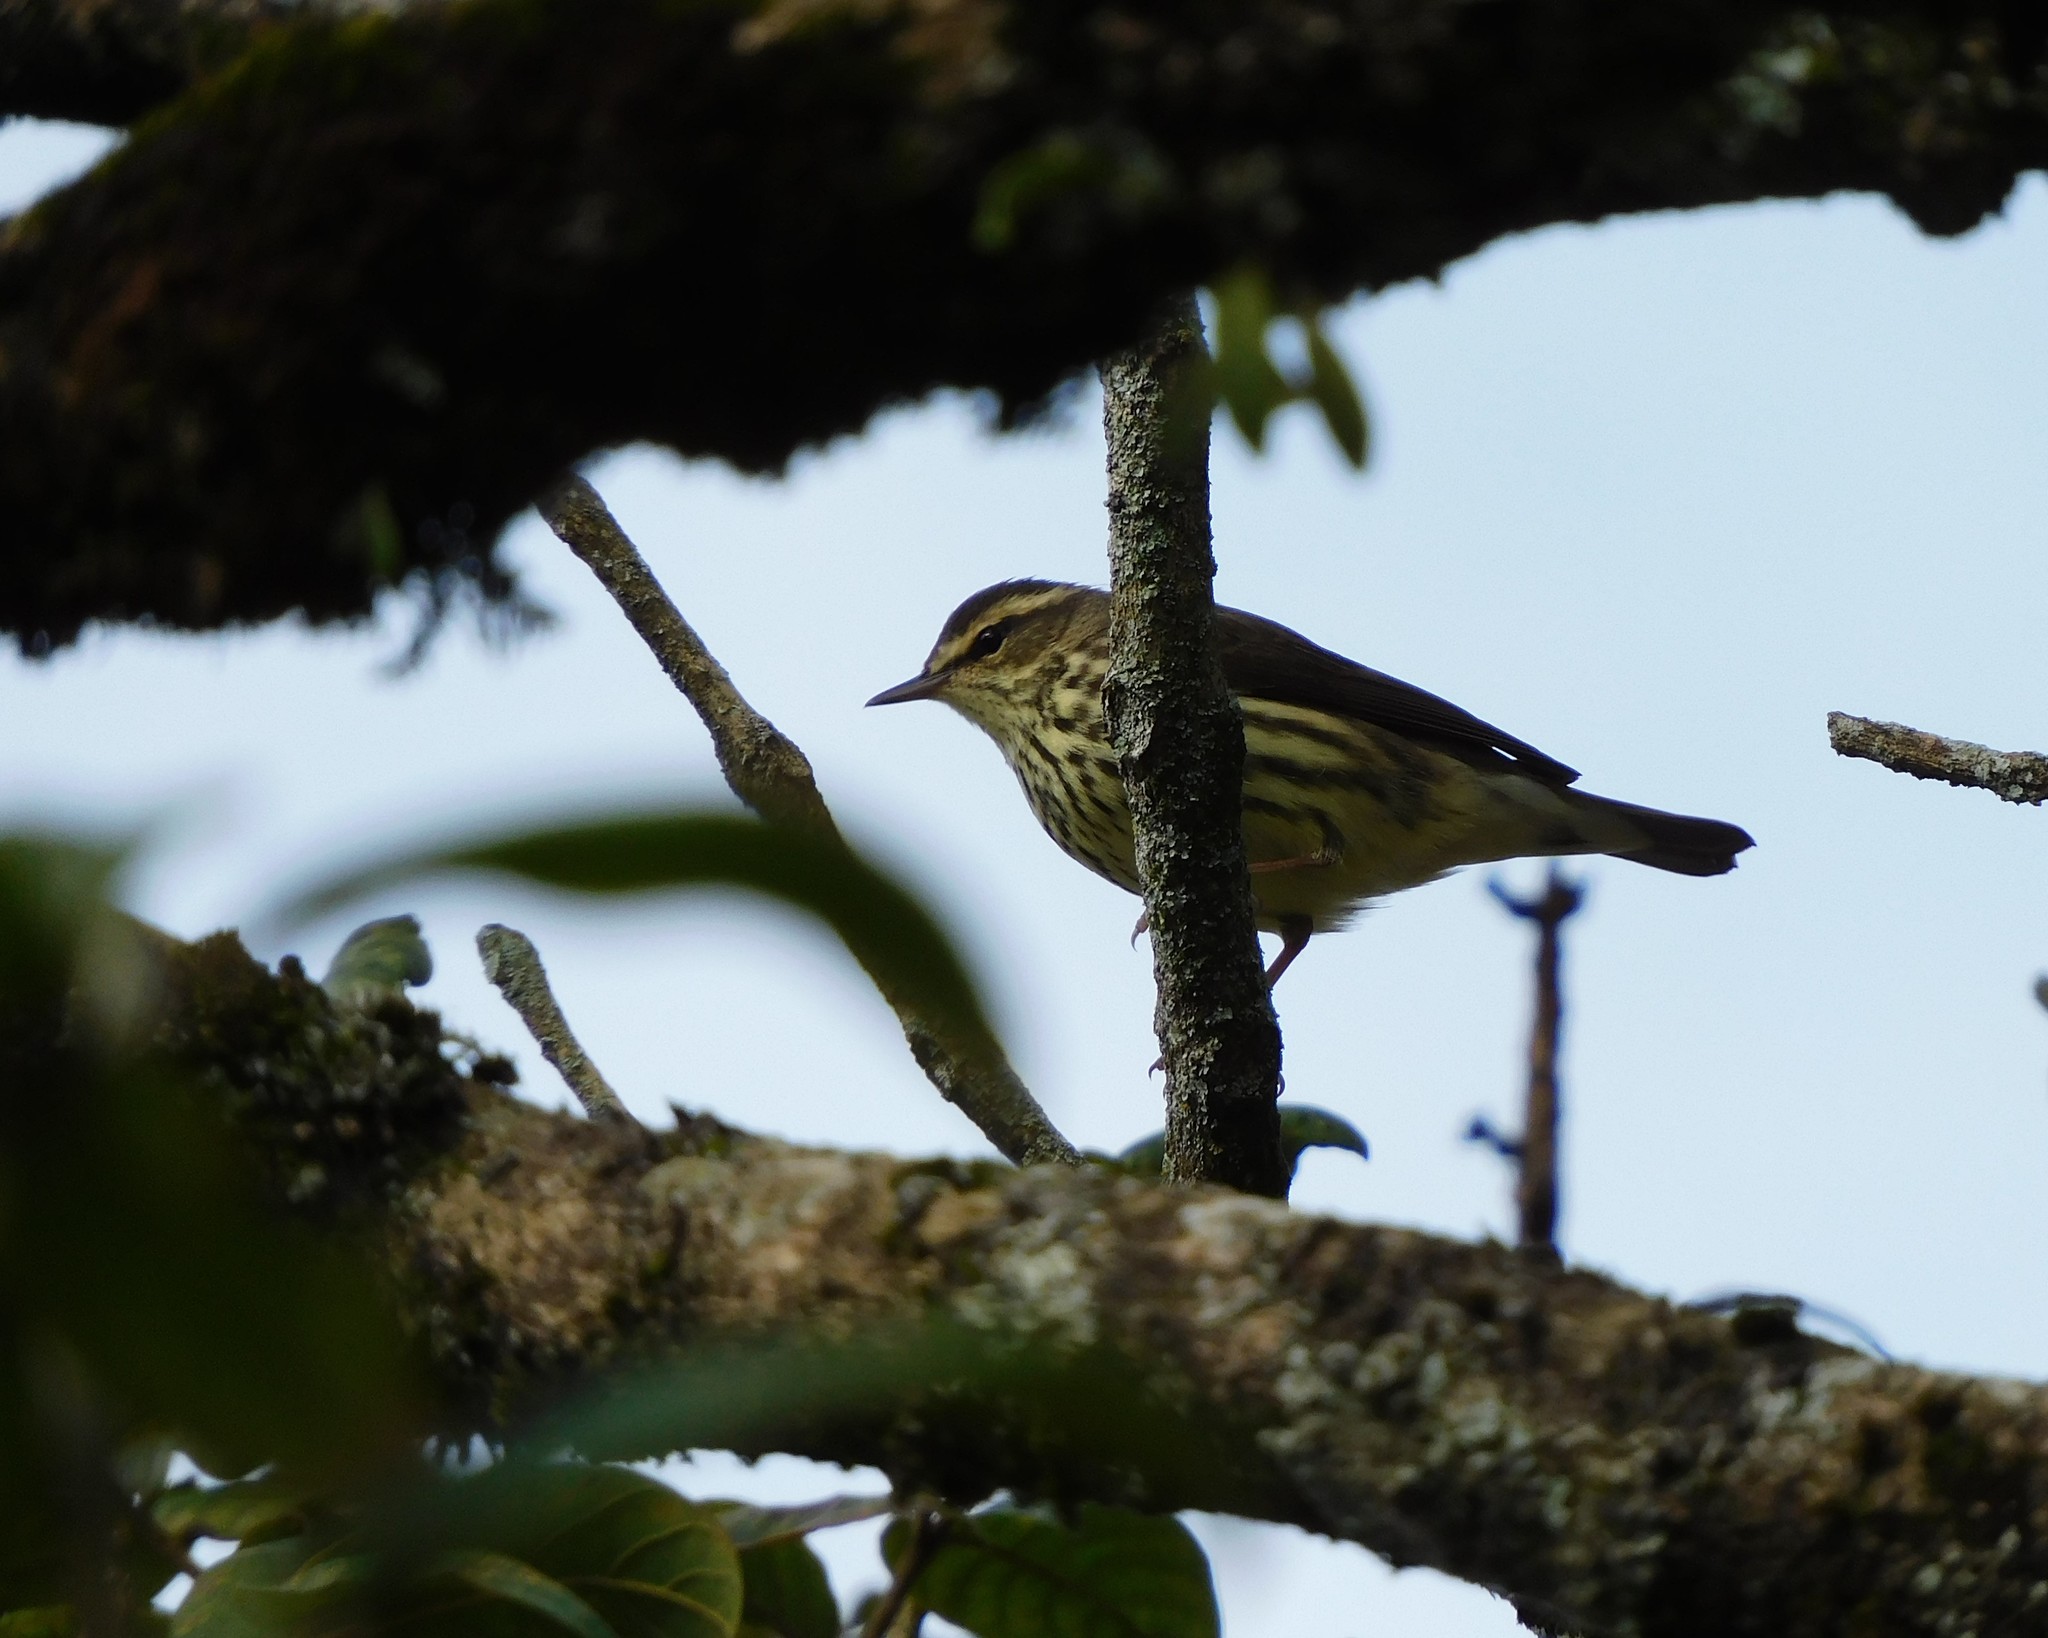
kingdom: Animalia
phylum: Chordata
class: Aves
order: Passeriformes
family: Parulidae
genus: Parkesia
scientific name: Parkesia noveboracensis
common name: Northern waterthrush
